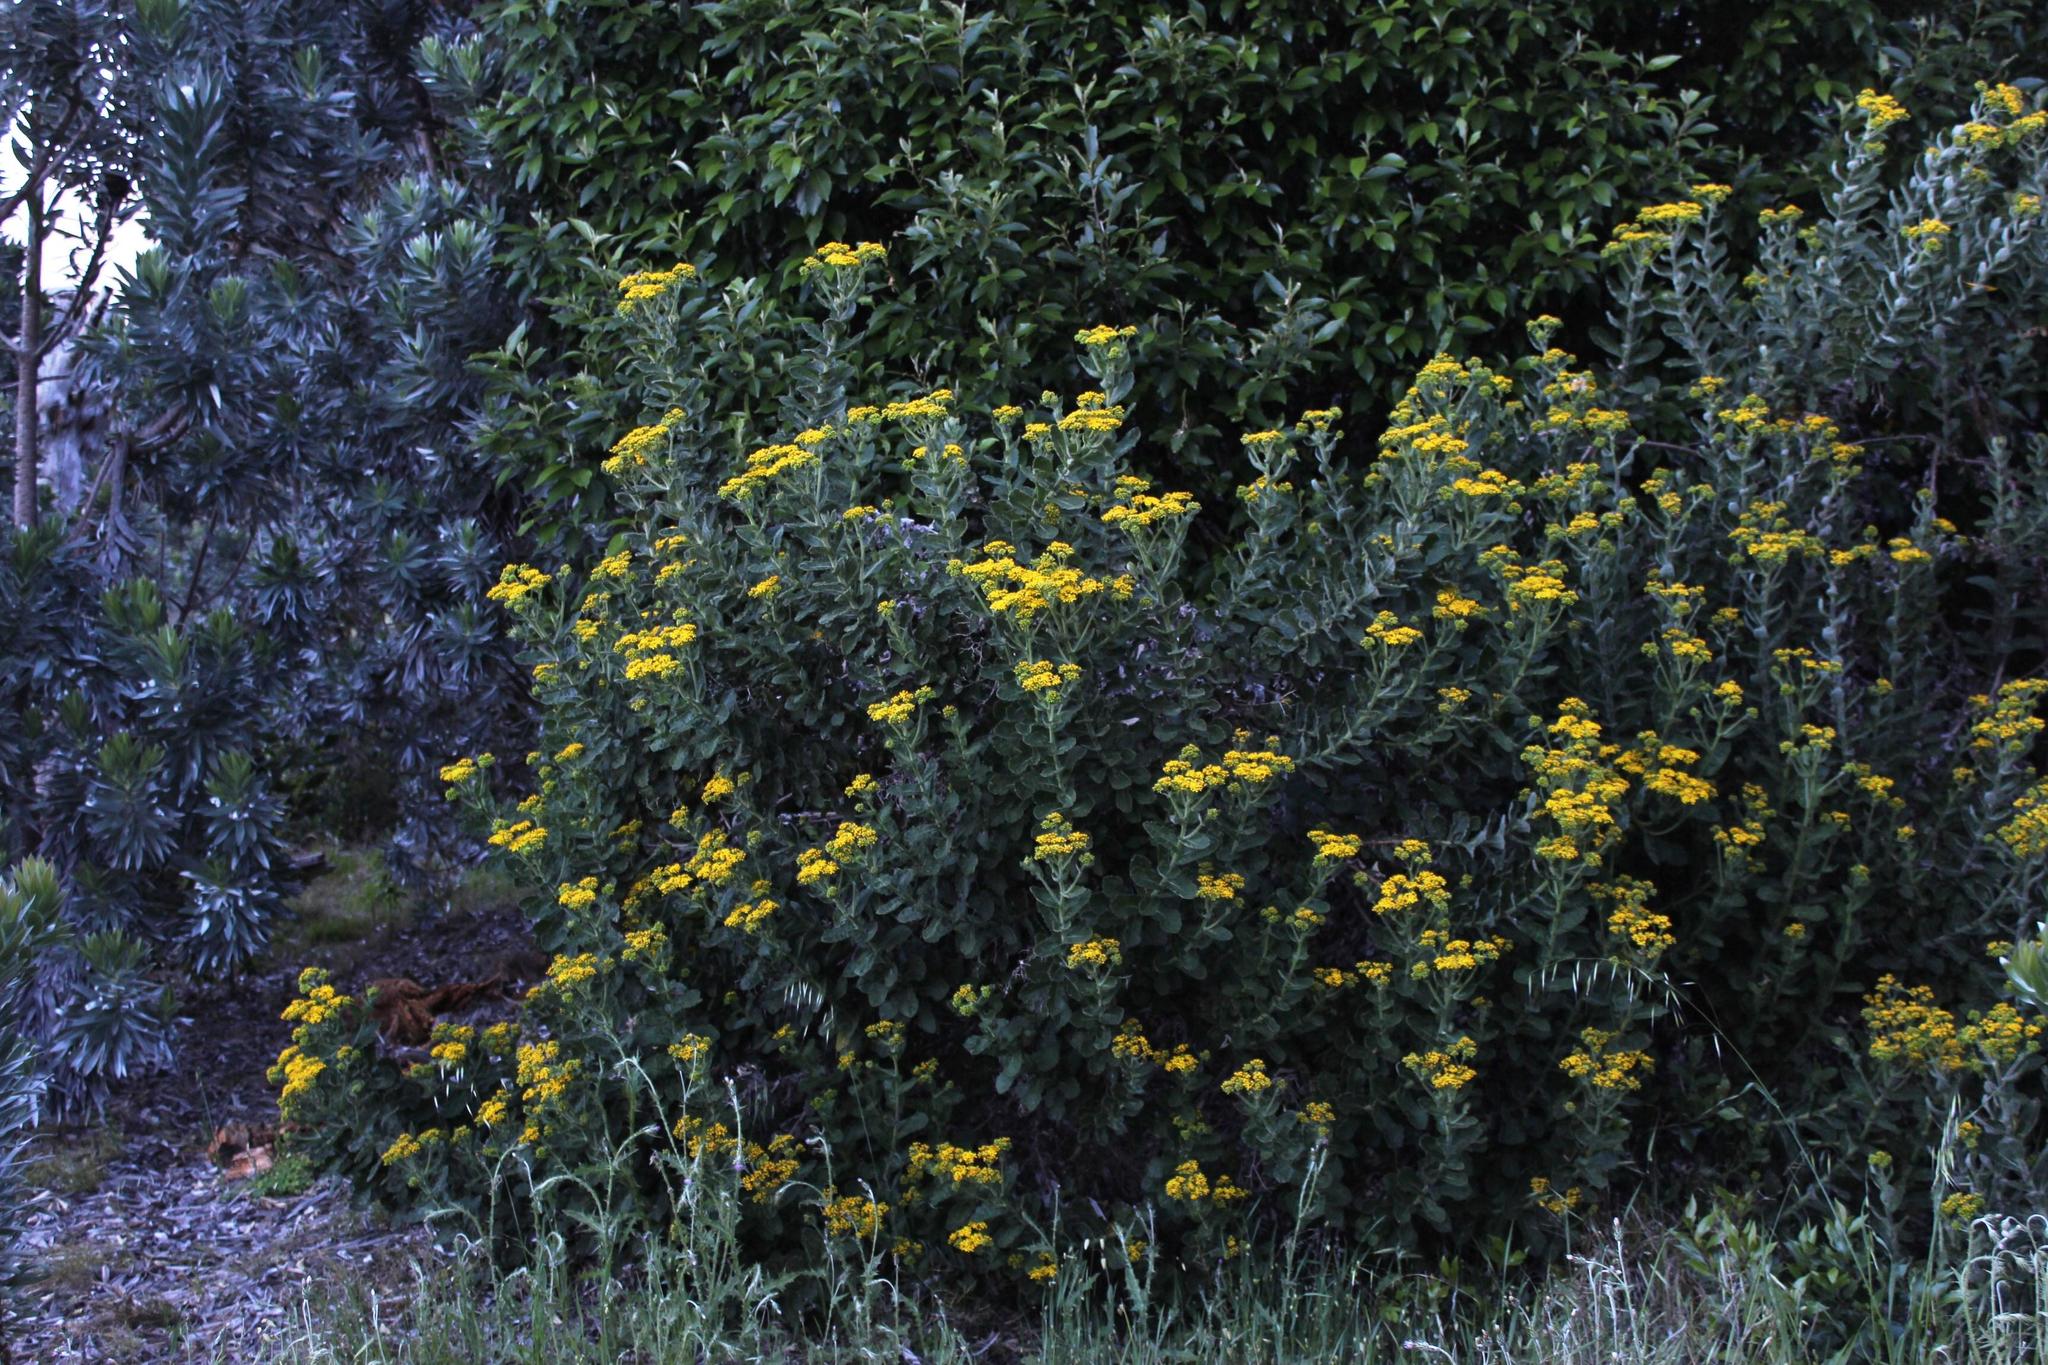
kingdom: Plantae
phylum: Tracheophyta
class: Magnoliopsida
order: Asterales
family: Asteraceae
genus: Senecio
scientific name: Senecio rigidus
